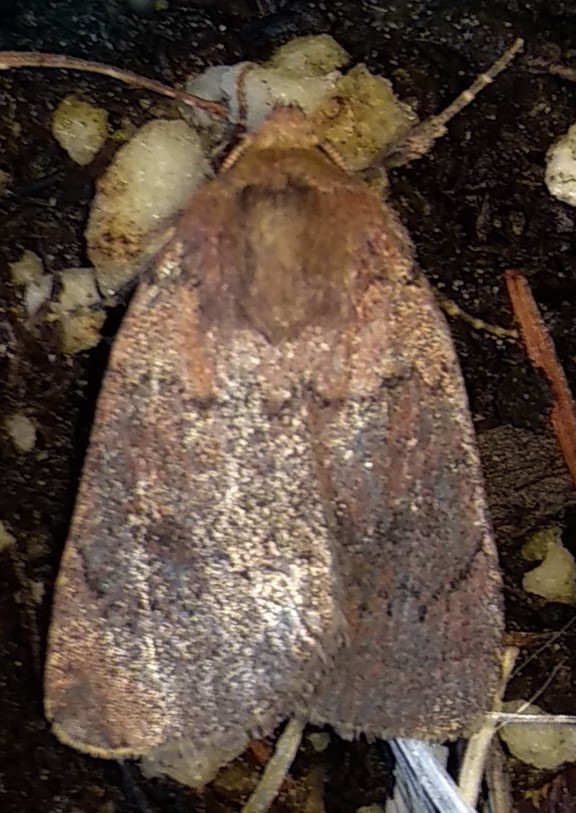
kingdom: Animalia
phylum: Arthropoda
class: Insecta
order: Lepidoptera
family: Noctuidae
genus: Orthodes
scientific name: Orthodes cynica
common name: Cynical quaker
